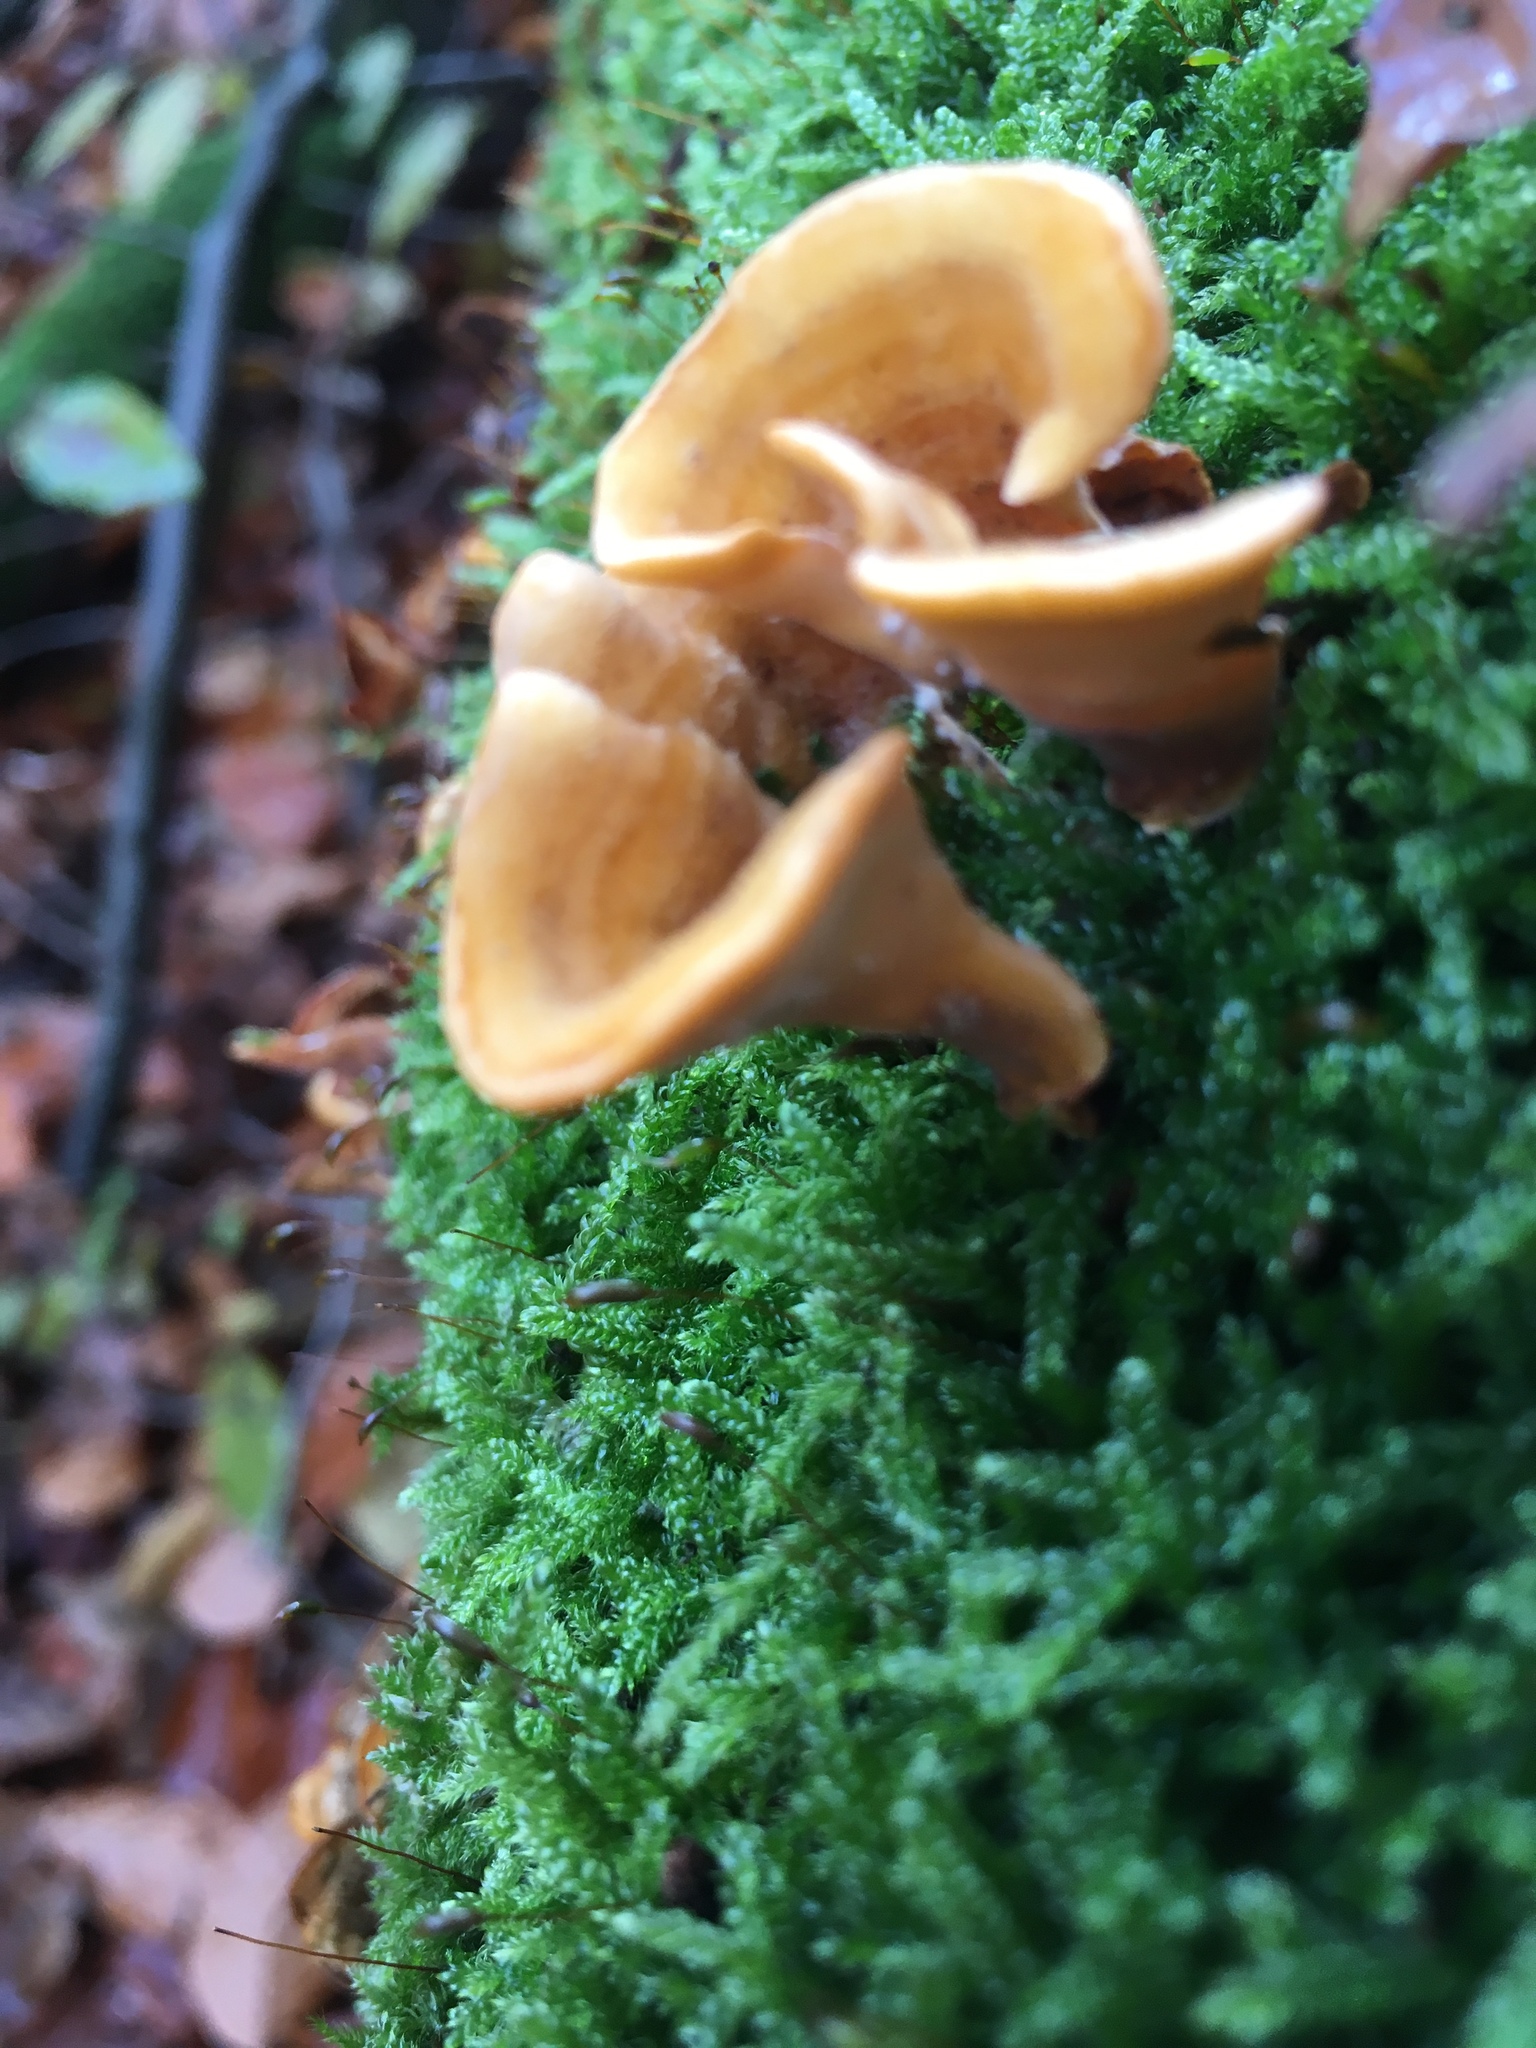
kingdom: Fungi
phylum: Basidiomycota
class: Agaricomycetes
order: Russulales
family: Stereaceae
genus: Stereum
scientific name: Stereum hirsutum
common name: Hairy curtain crust
